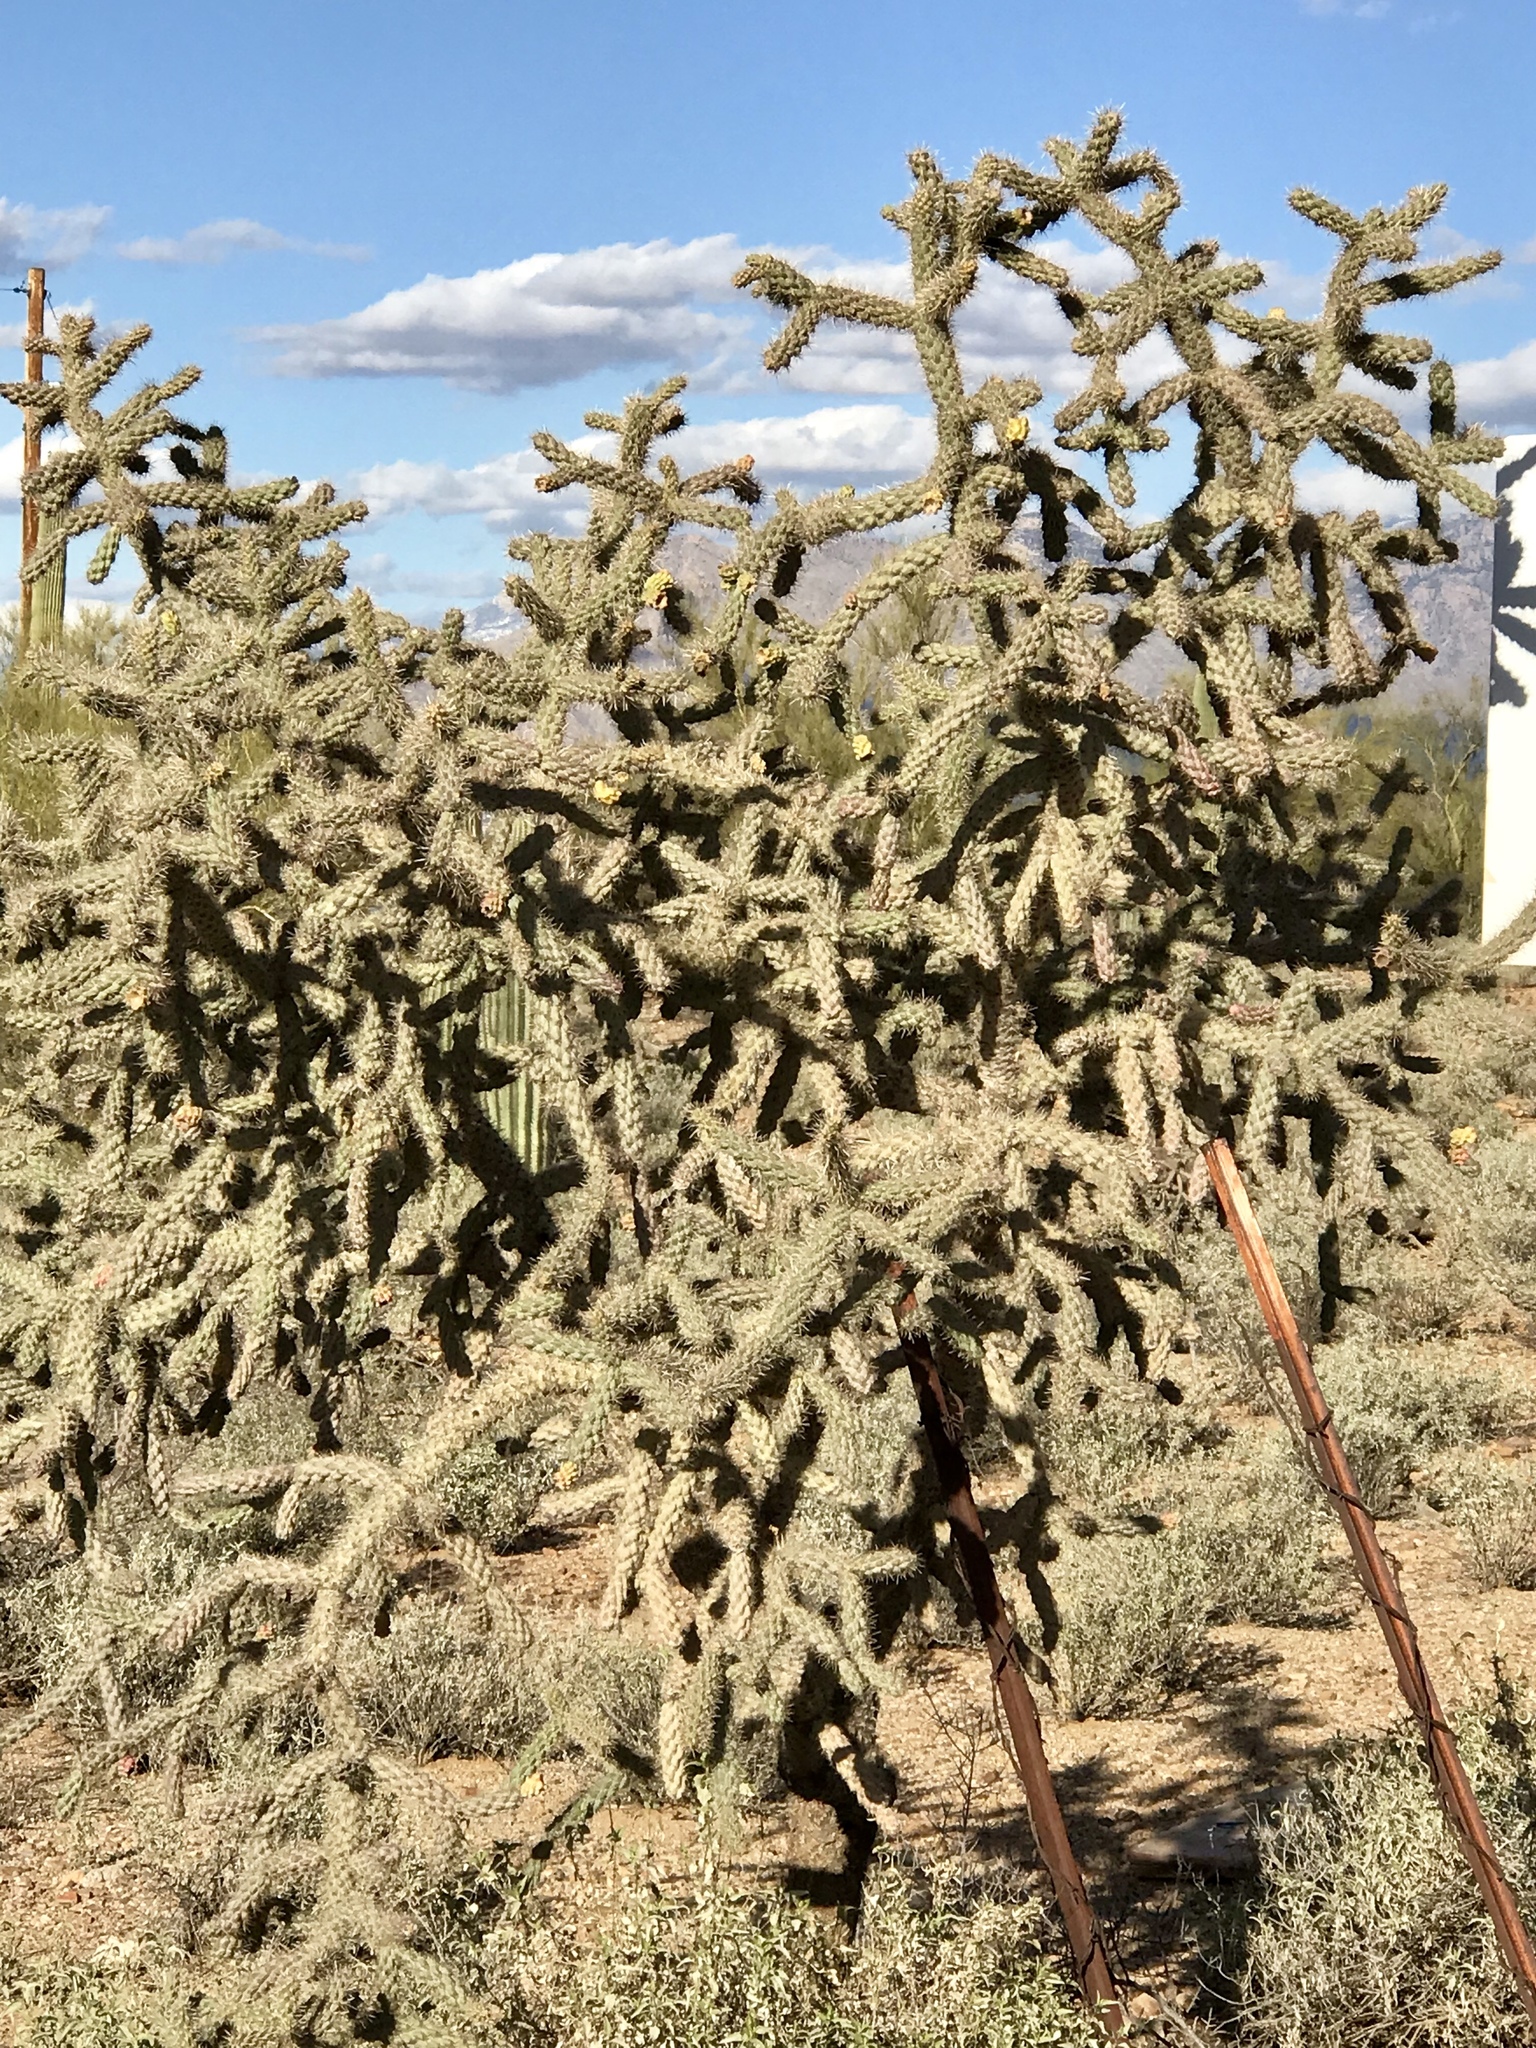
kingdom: Plantae
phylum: Tracheophyta
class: Magnoliopsida
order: Caryophyllales
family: Cactaceae
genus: Cylindropuntia
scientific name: Cylindropuntia imbricata
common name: Candelabrum cactus
